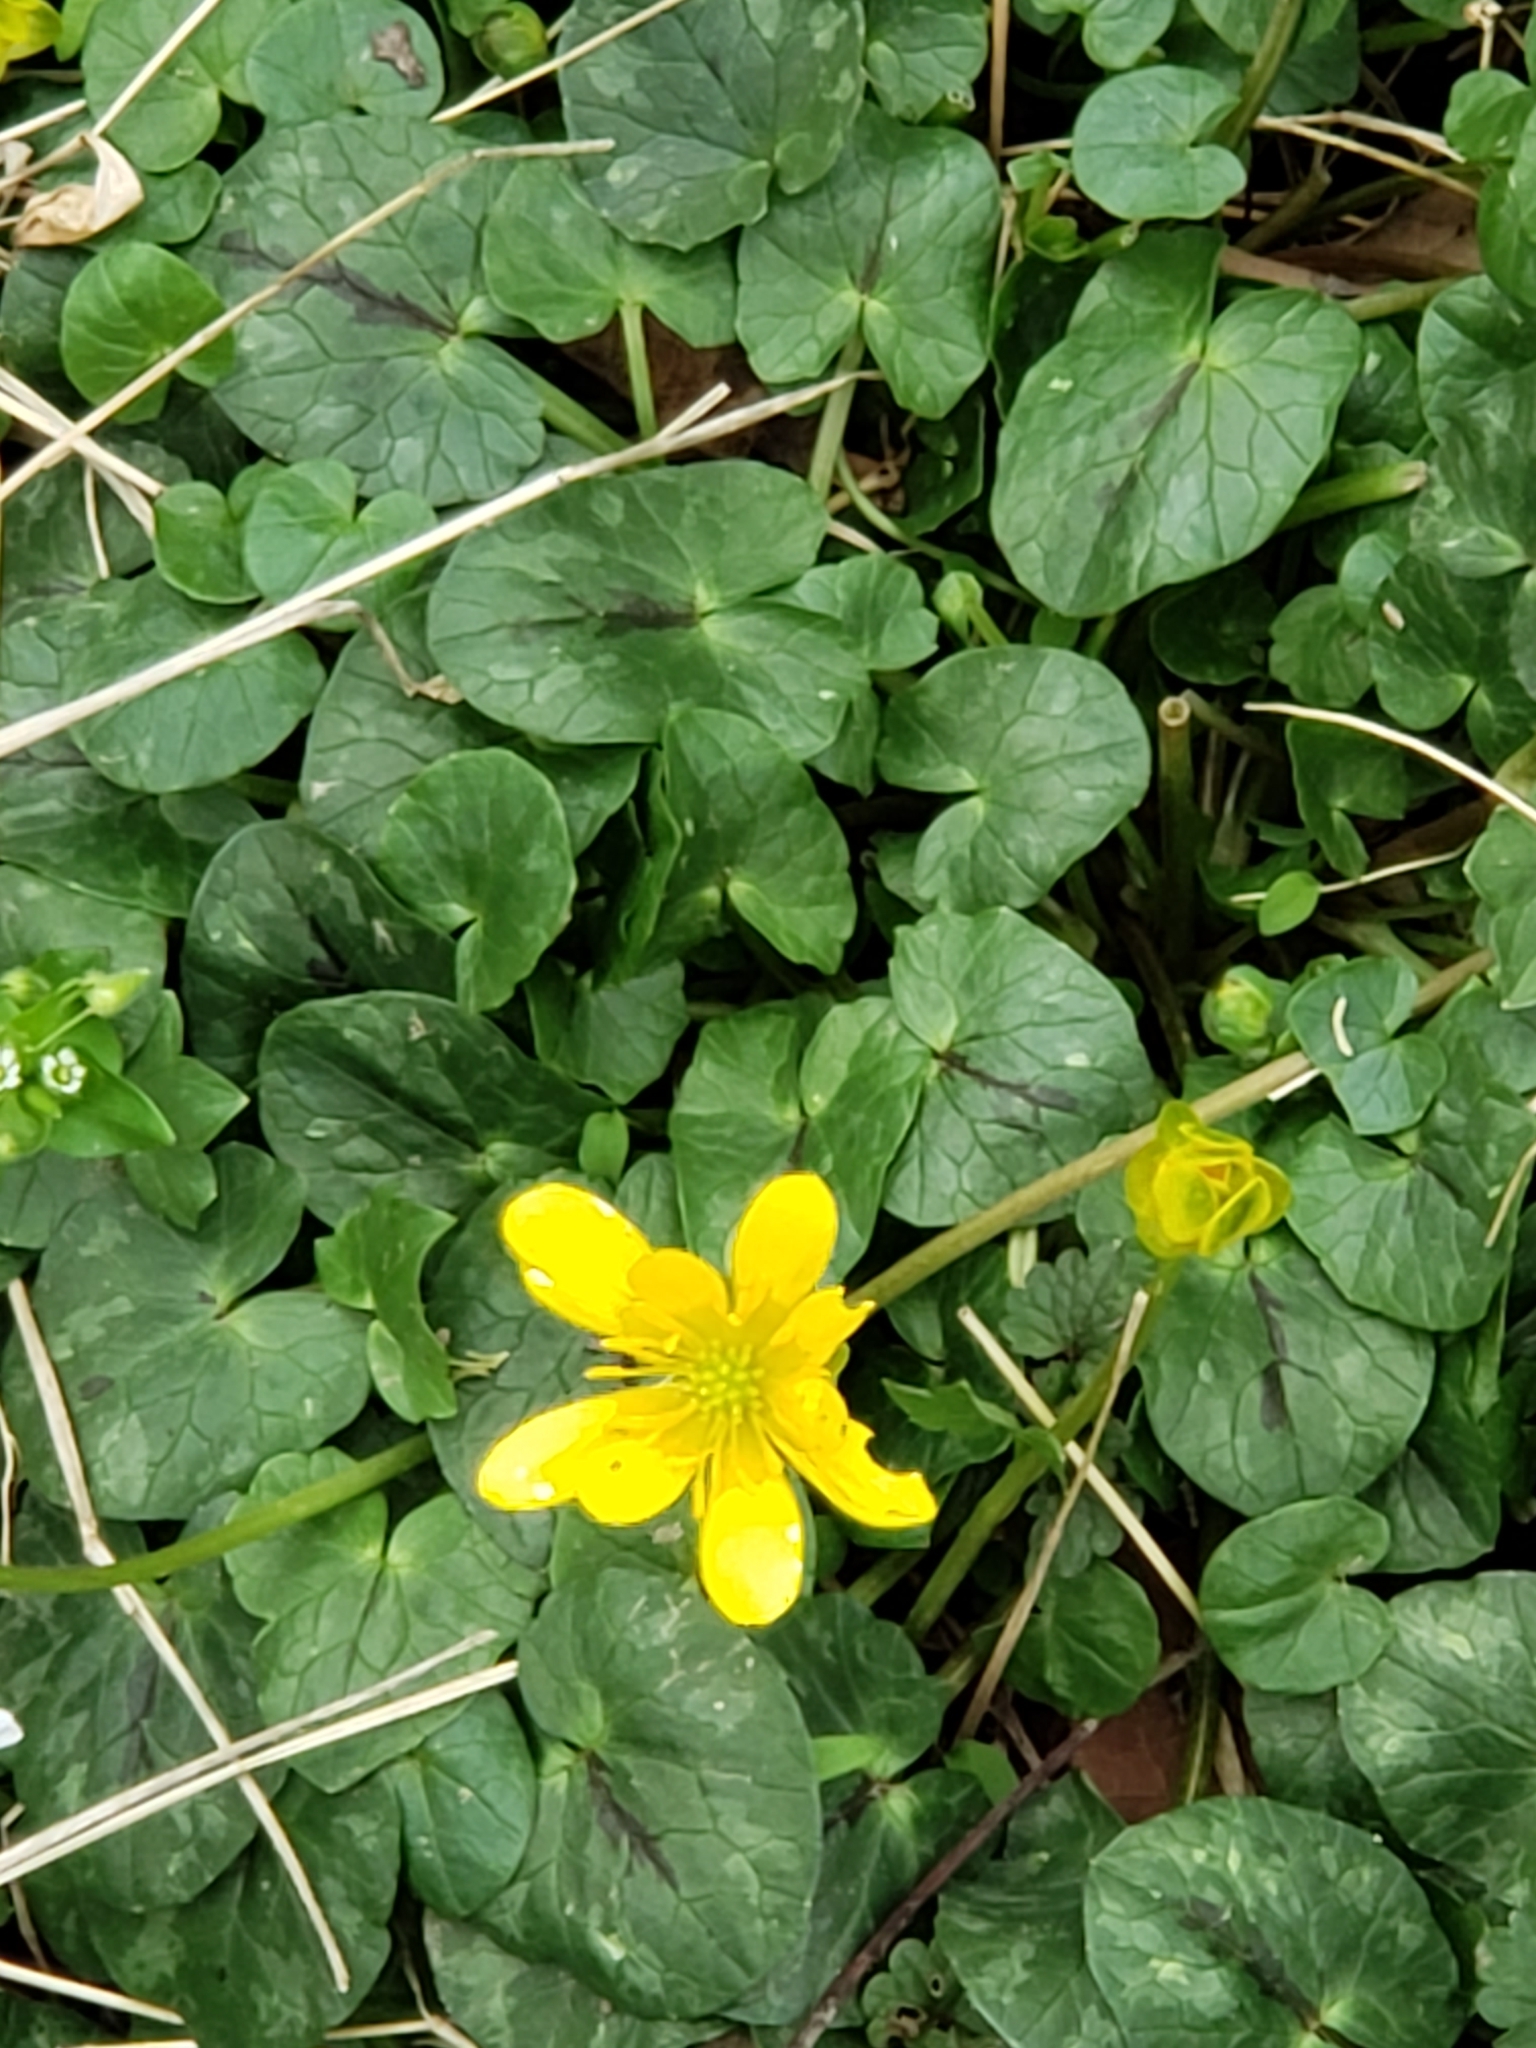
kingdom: Plantae
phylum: Tracheophyta
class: Magnoliopsida
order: Ranunculales
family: Ranunculaceae
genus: Ficaria
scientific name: Ficaria verna
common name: Lesser celandine
